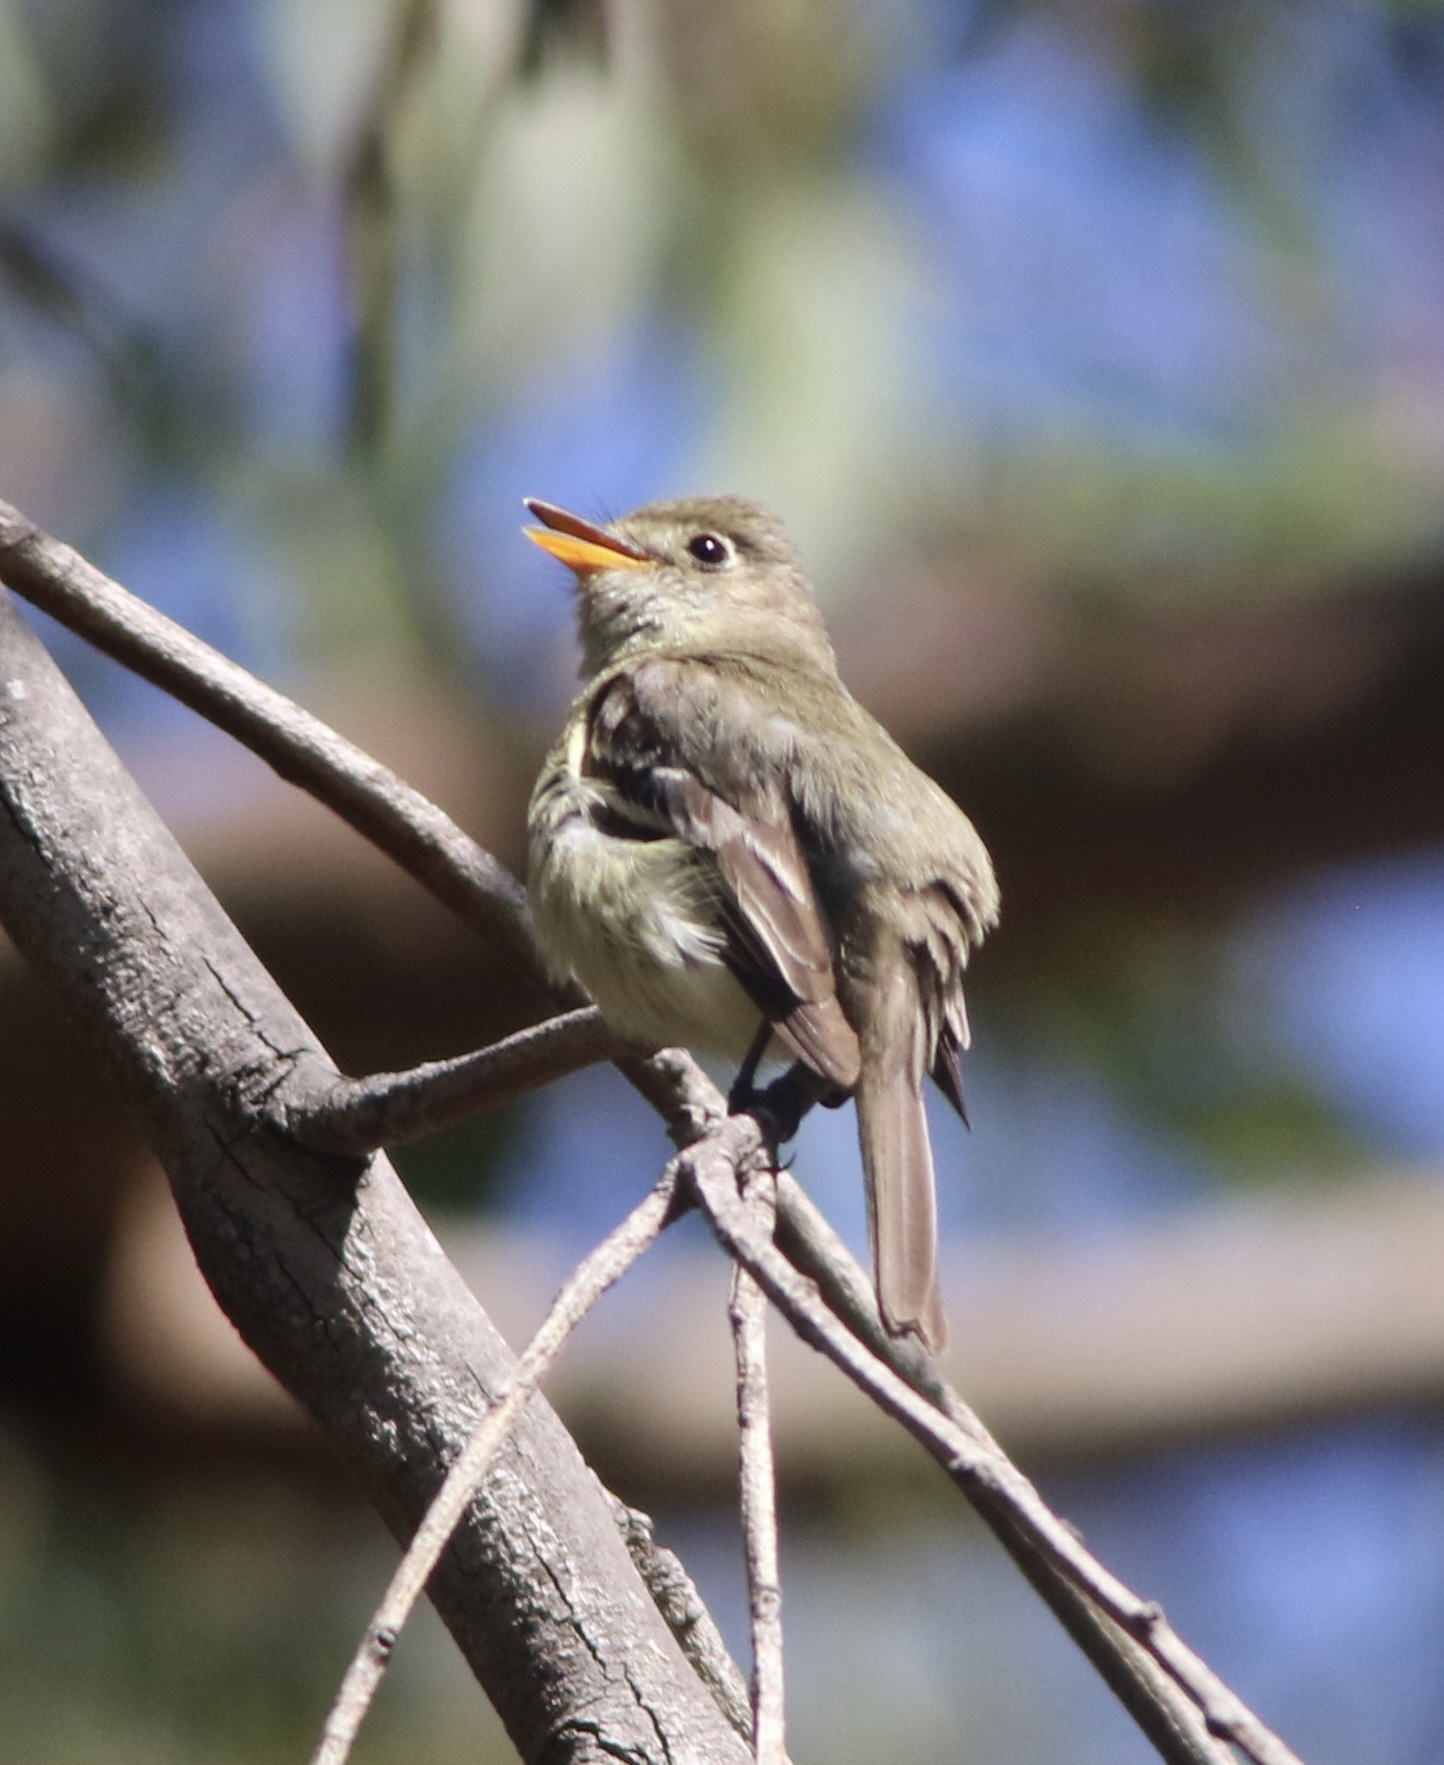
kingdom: Animalia
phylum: Chordata
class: Aves
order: Passeriformes
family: Tyrannidae
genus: Empidonax
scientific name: Empidonax difficilis
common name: Pacific-slope flycatcher
